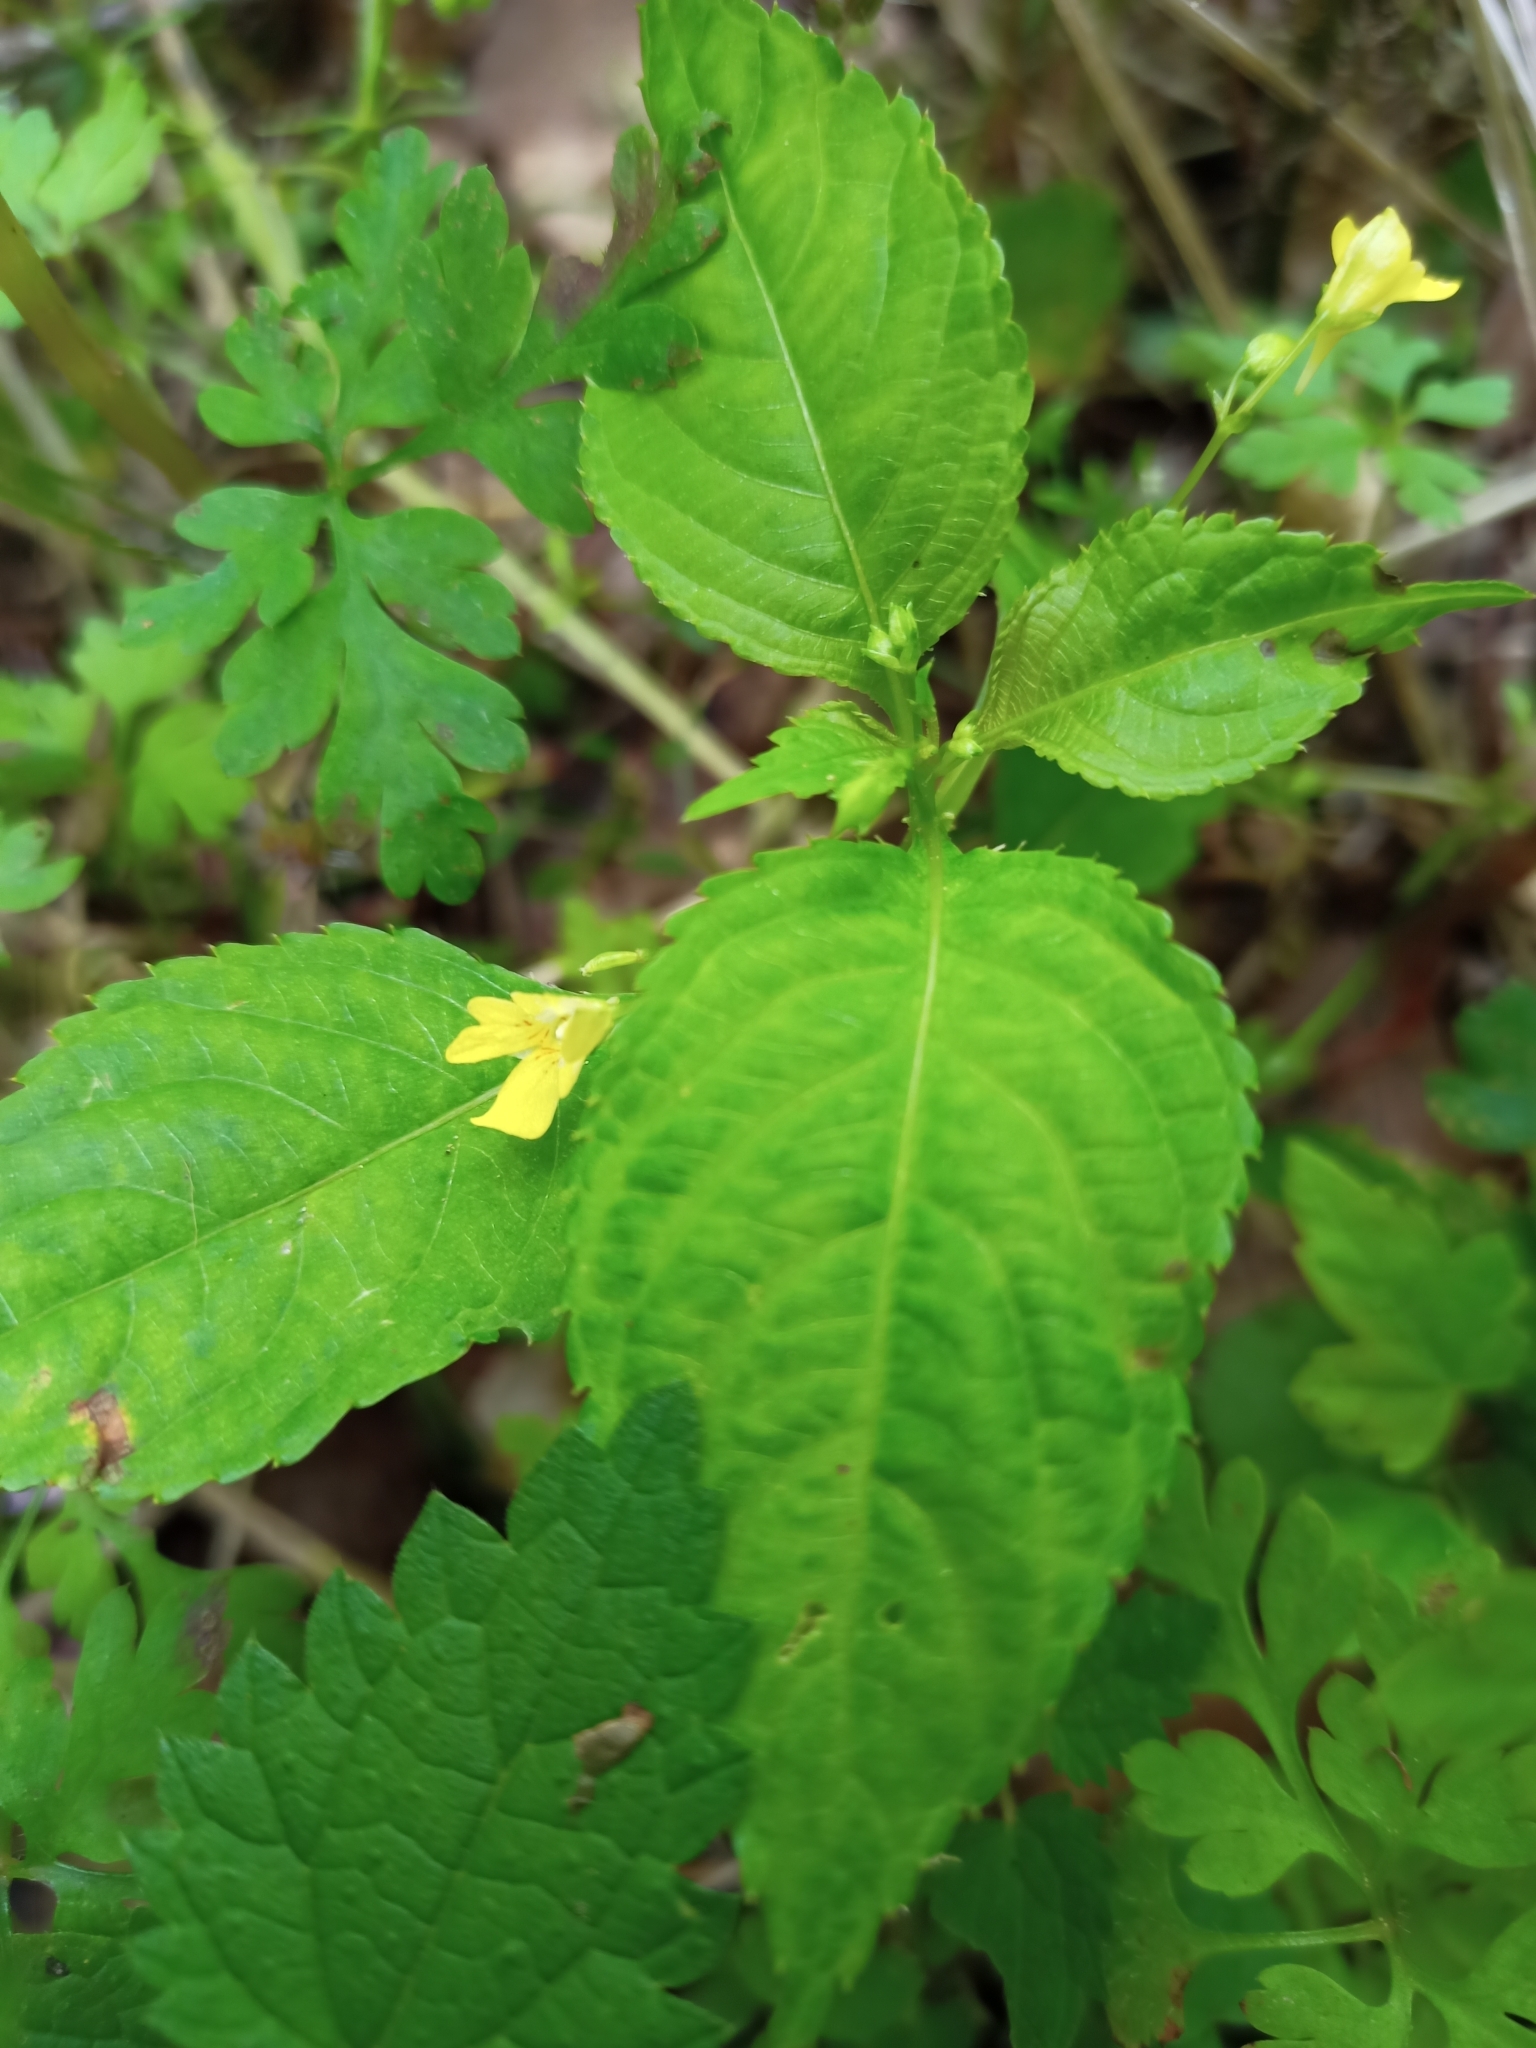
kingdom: Plantae
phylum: Tracheophyta
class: Magnoliopsida
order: Ericales
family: Balsaminaceae
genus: Impatiens
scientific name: Impatiens parviflora
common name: Small balsam
